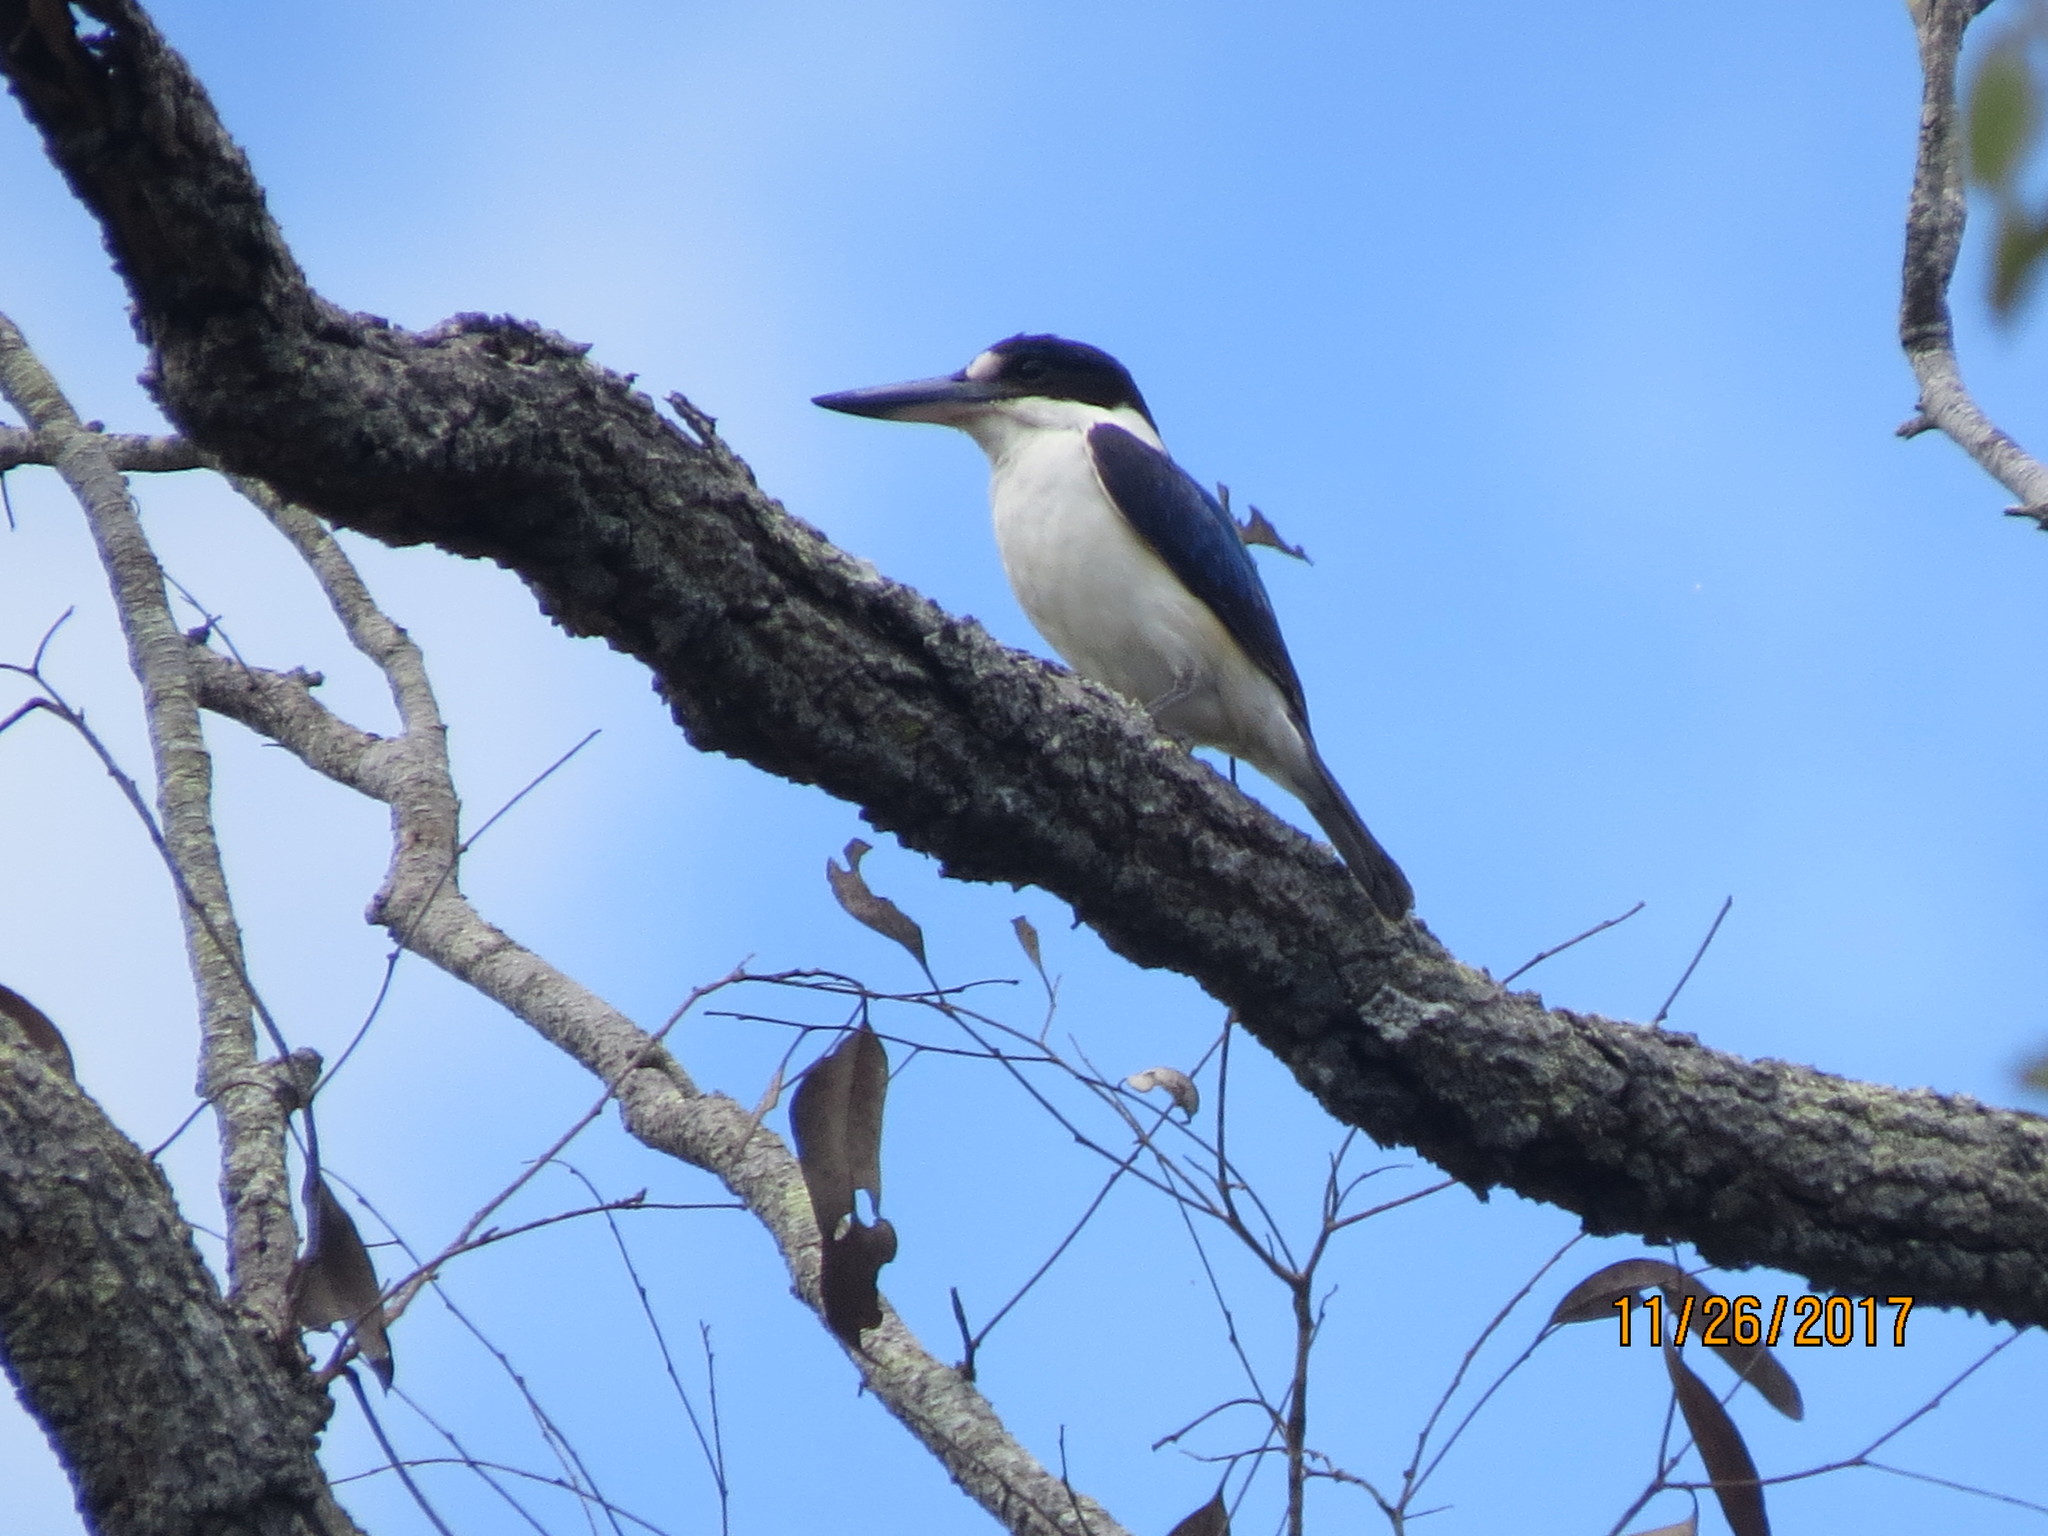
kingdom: Animalia
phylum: Chordata
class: Aves
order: Coraciiformes
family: Alcedinidae
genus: Todiramphus
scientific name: Todiramphus macleayii
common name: Forest kingfisher
